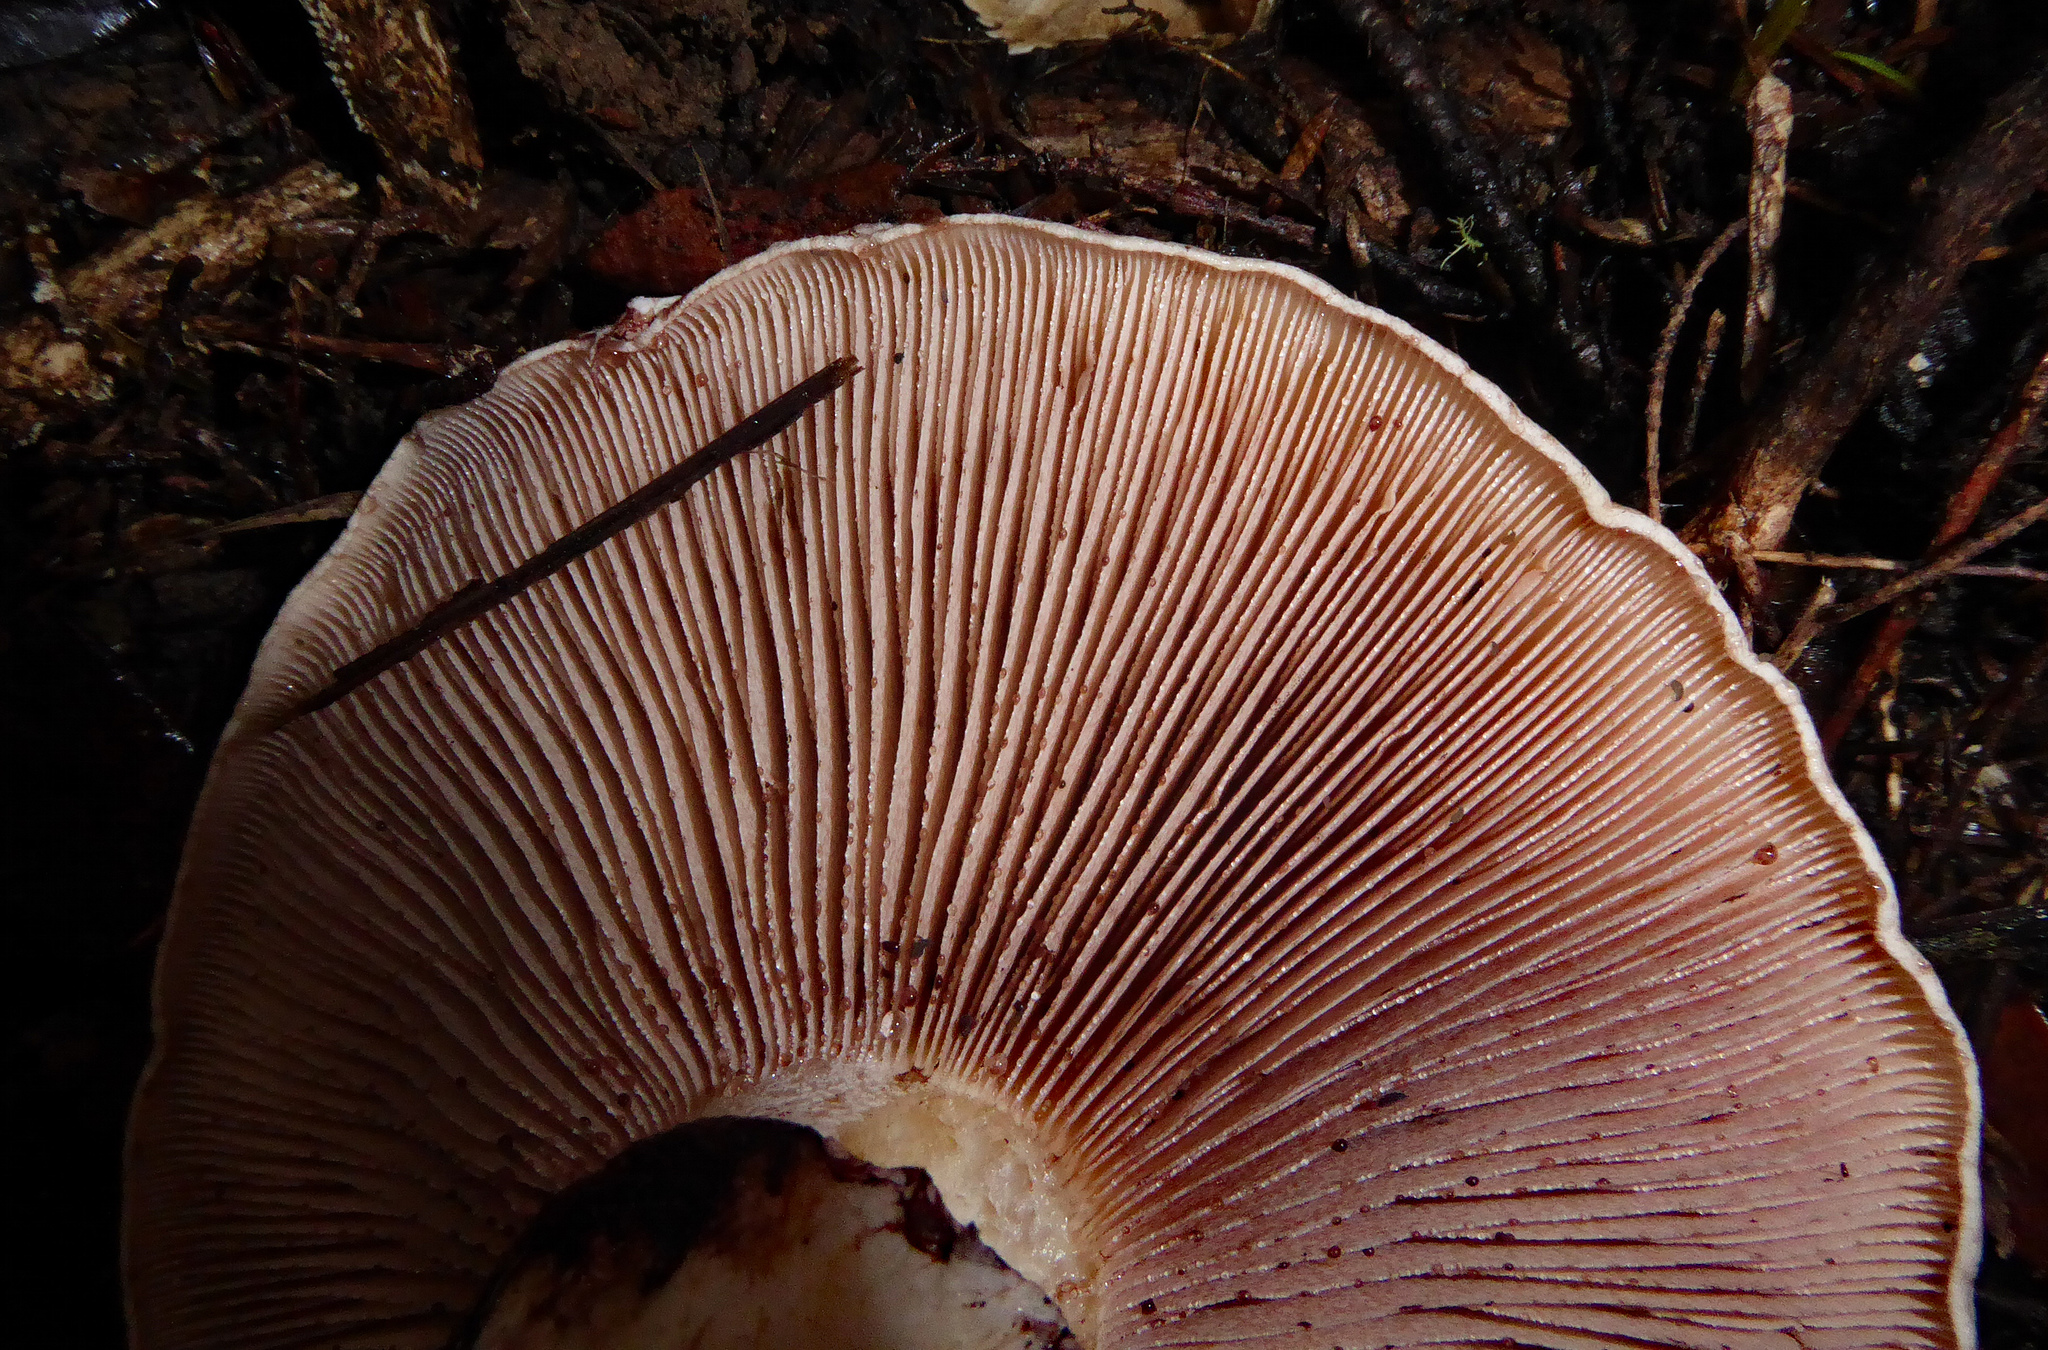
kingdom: Fungi
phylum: Basidiomycota
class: Agaricomycetes
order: Agaricales
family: Hymenogastraceae
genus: Hebeloma
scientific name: Hebeloma victoriense
